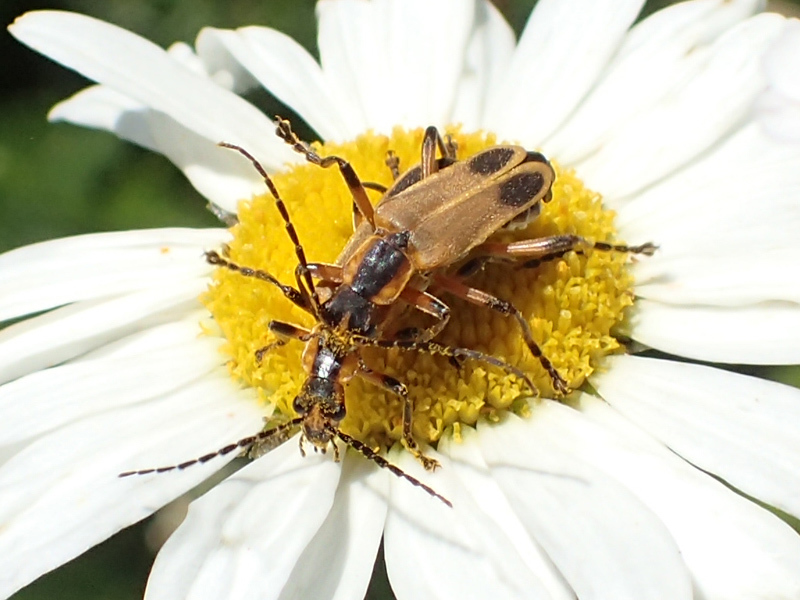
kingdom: Animalia
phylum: Arthropoda
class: Insecta
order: Coleoptera
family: Cantharidae
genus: Chauliognathus
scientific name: Chauliognathus marginatus
